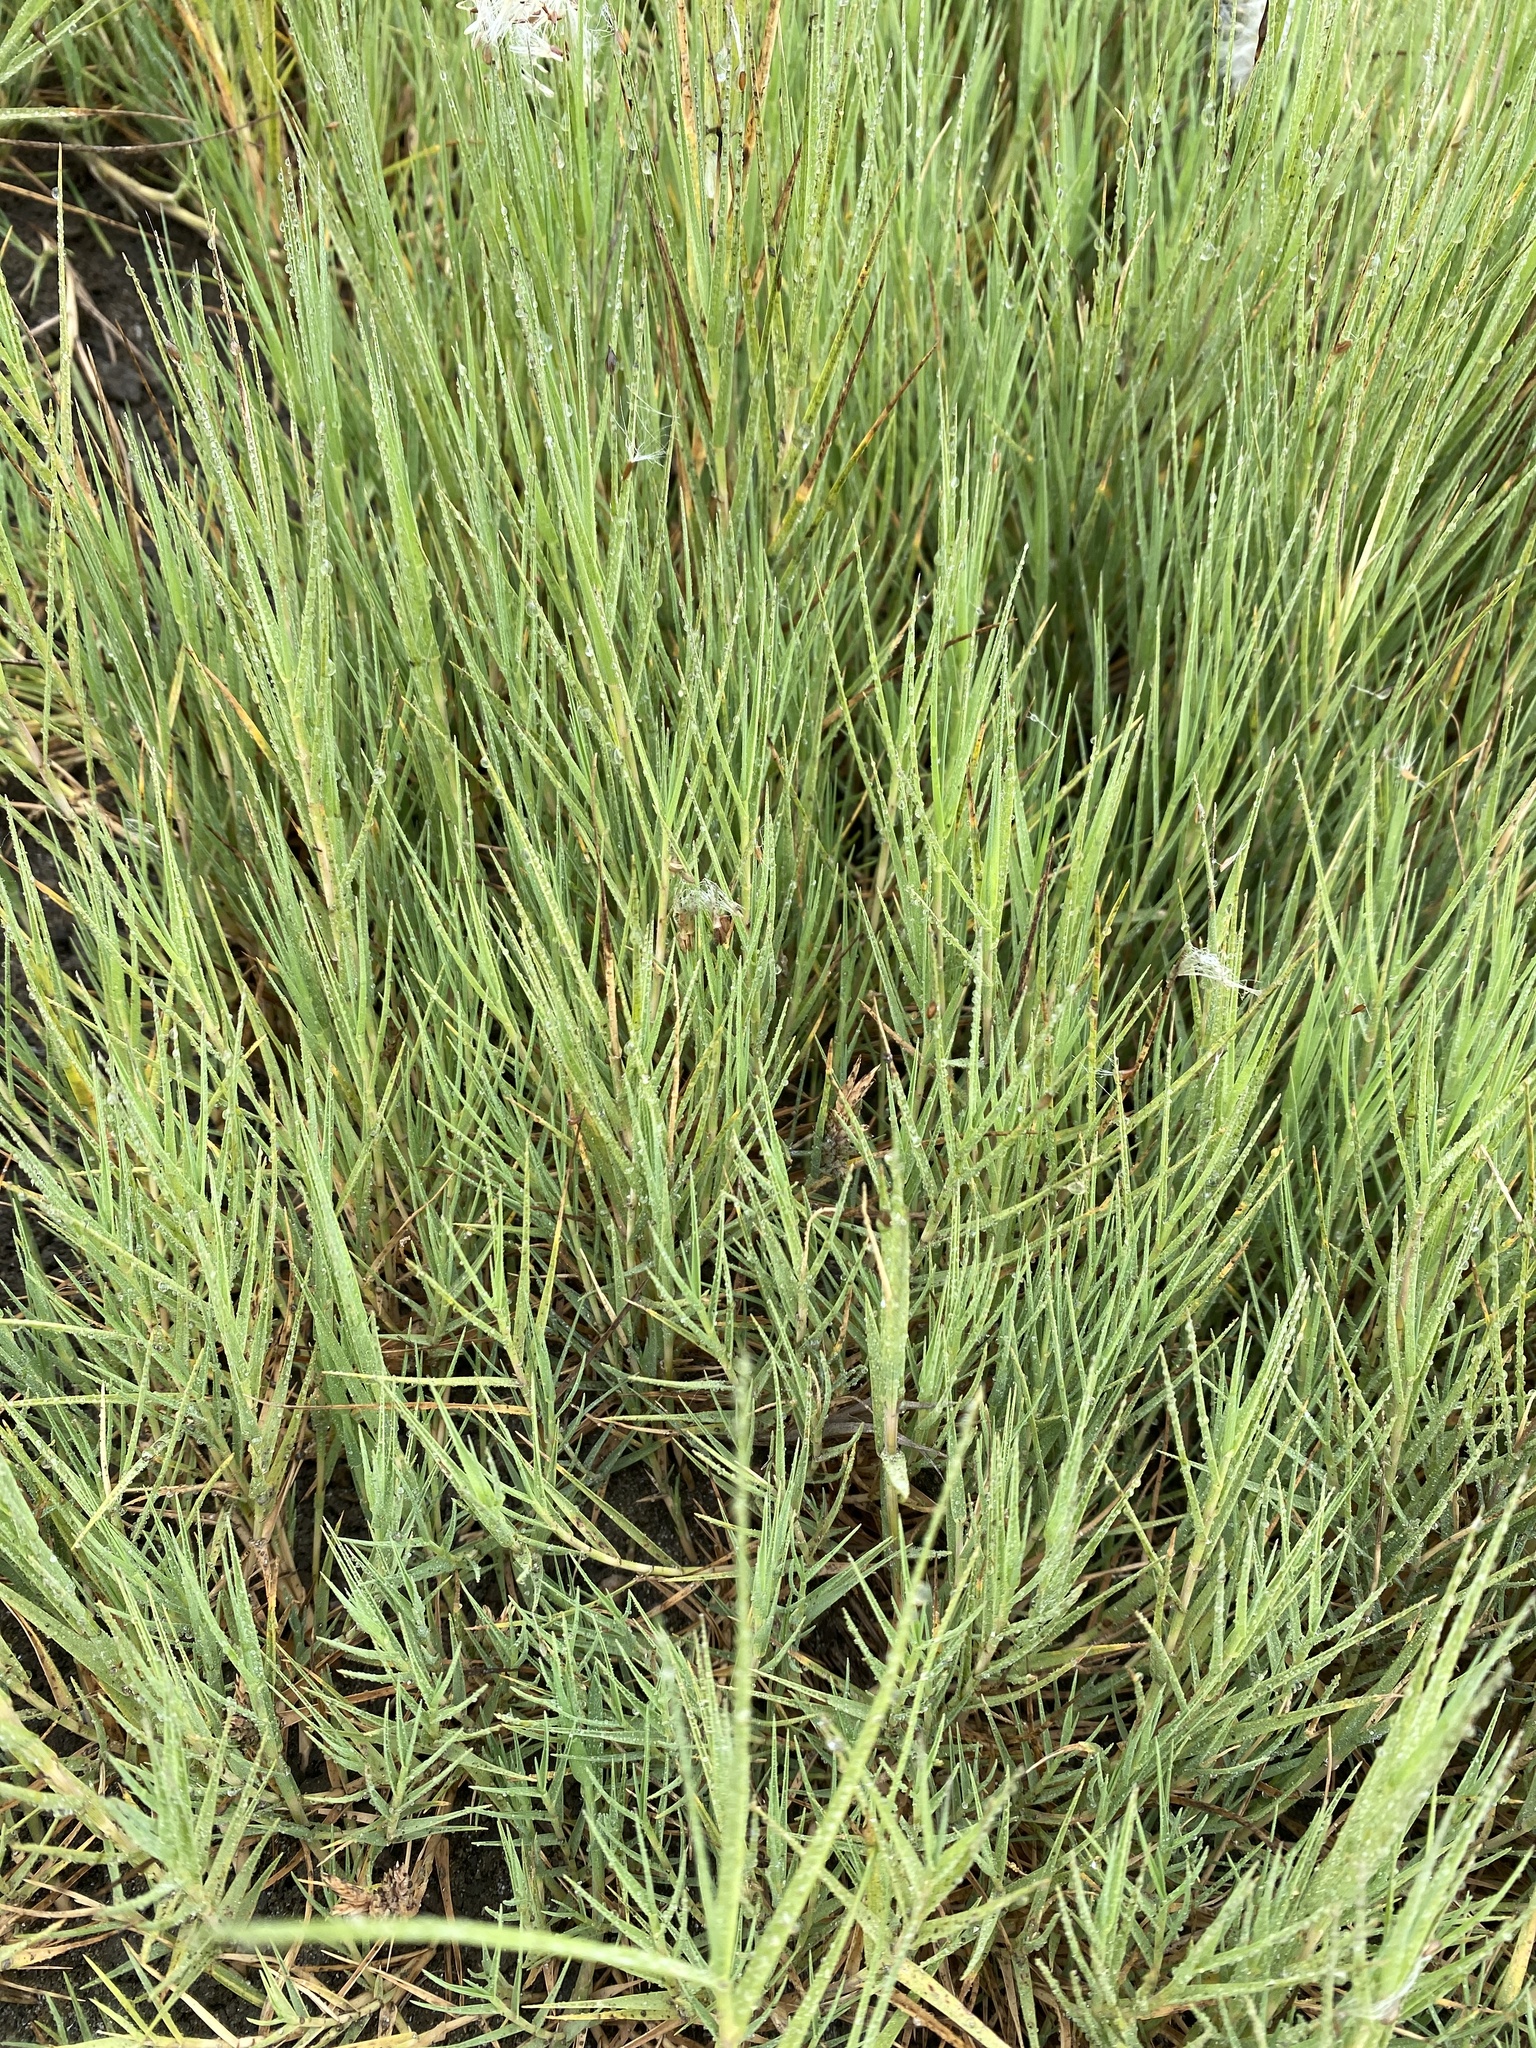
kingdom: Plantae
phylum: Tracheophyta
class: Liliopsida
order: Poales
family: Poaceae
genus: Distichlis
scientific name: Distichlis spicata
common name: Saltgrass
